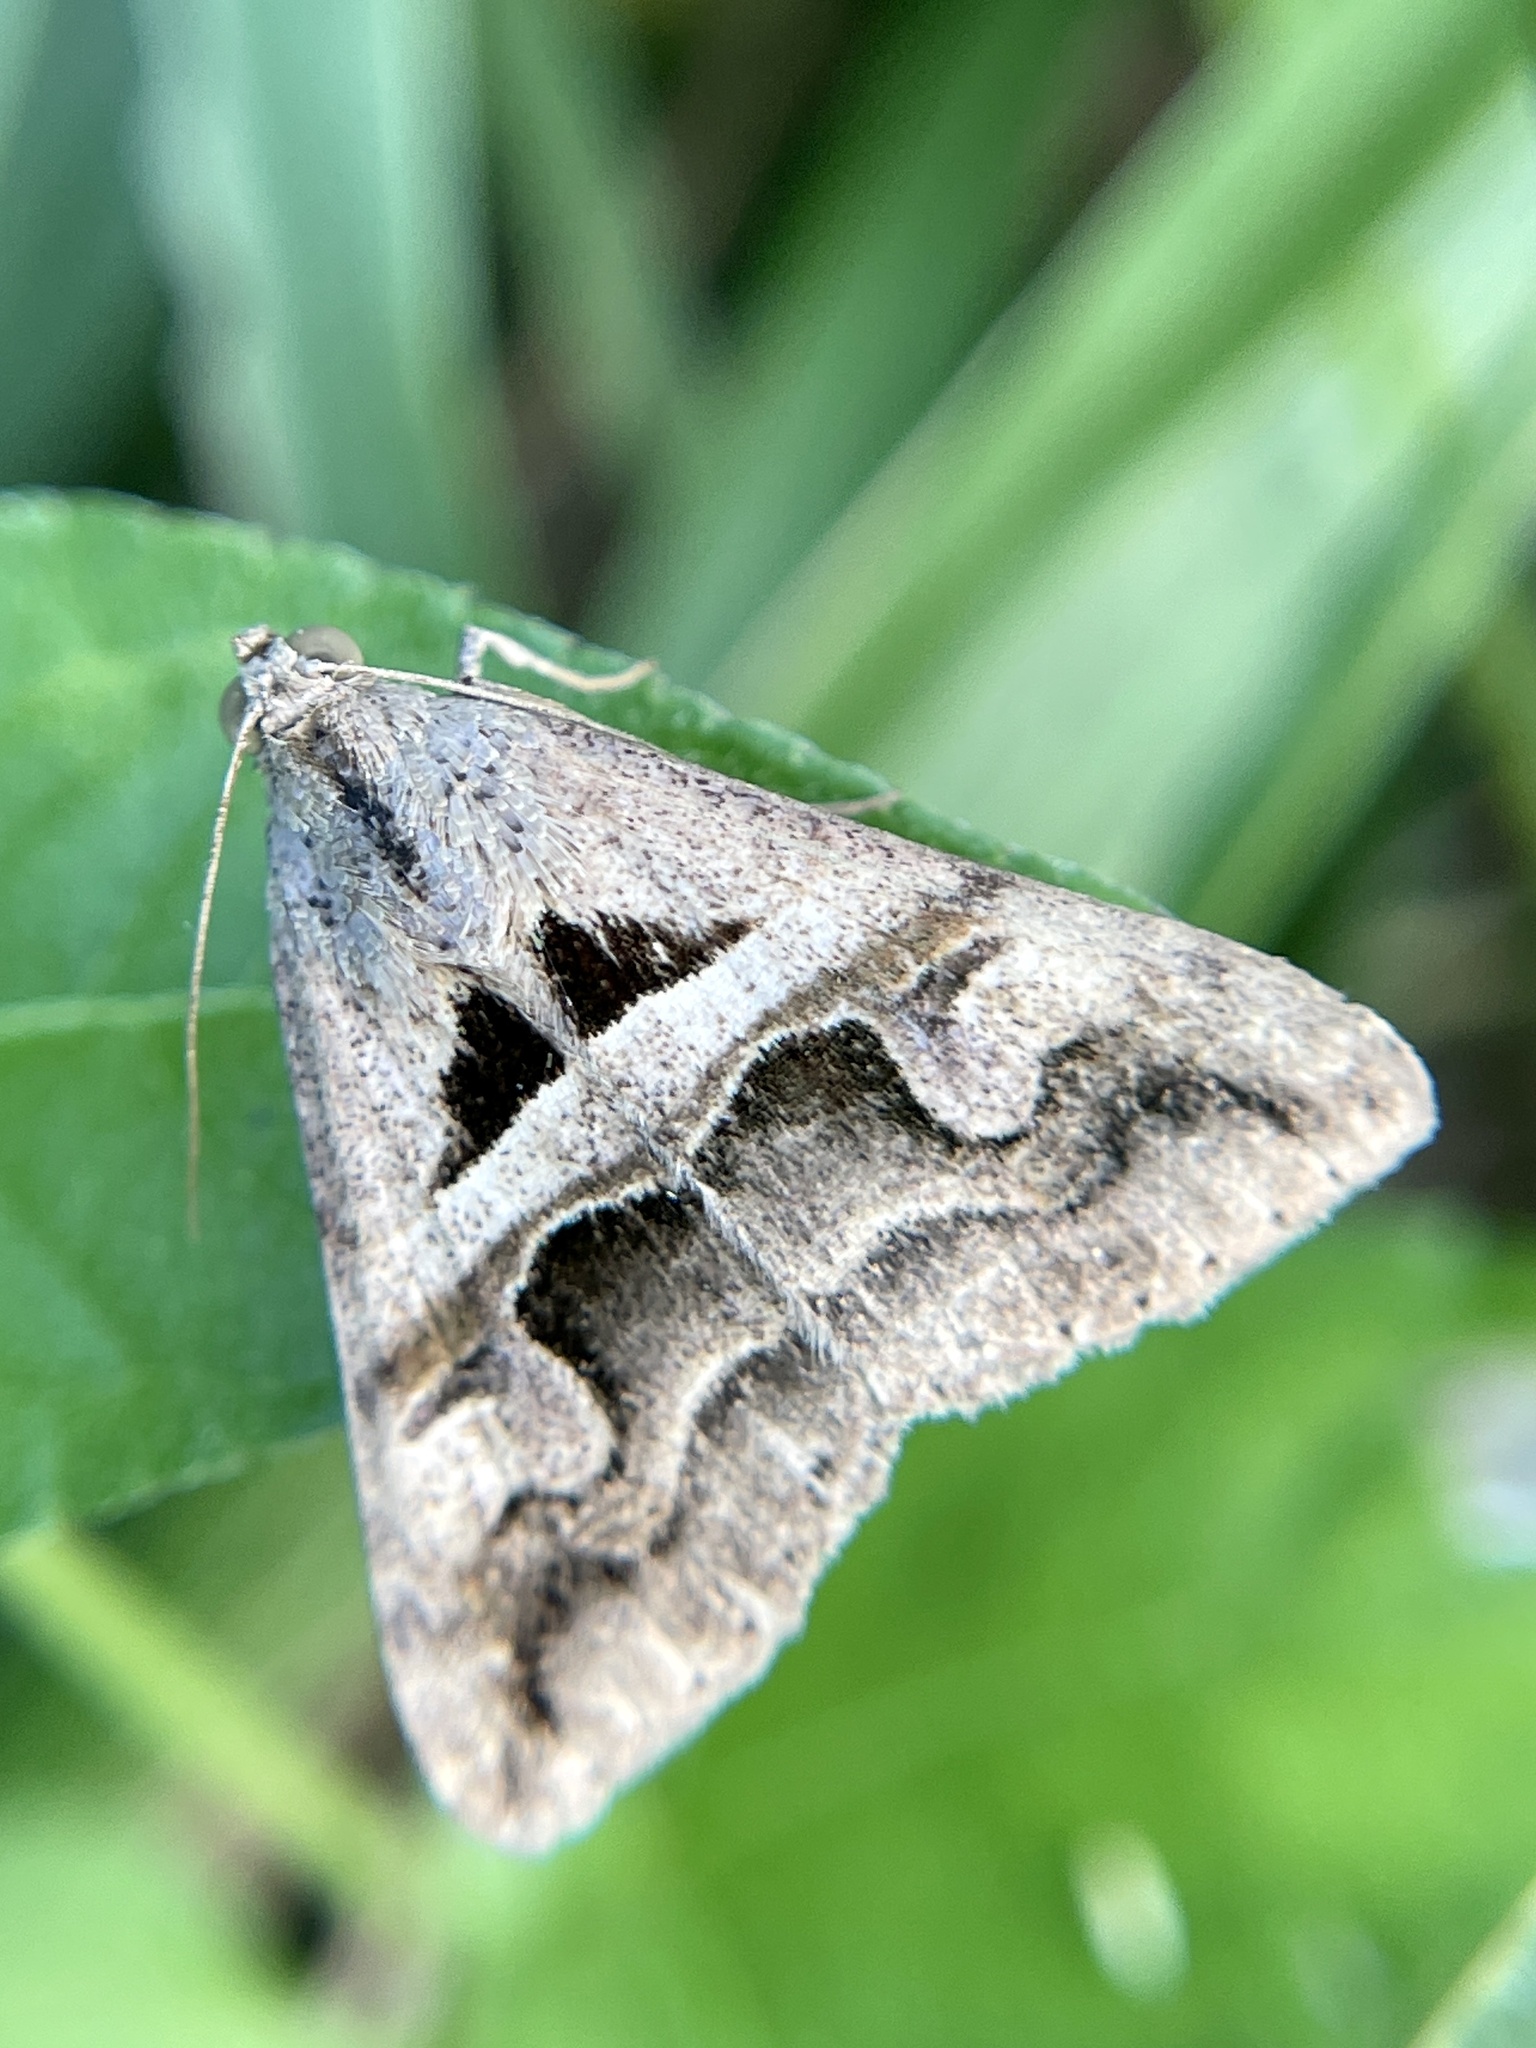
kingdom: Animalia
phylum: Arthropoda
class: Insecta
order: Lepidoptera
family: Erebidae
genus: Melipotis
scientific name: Melipotis cellaris
